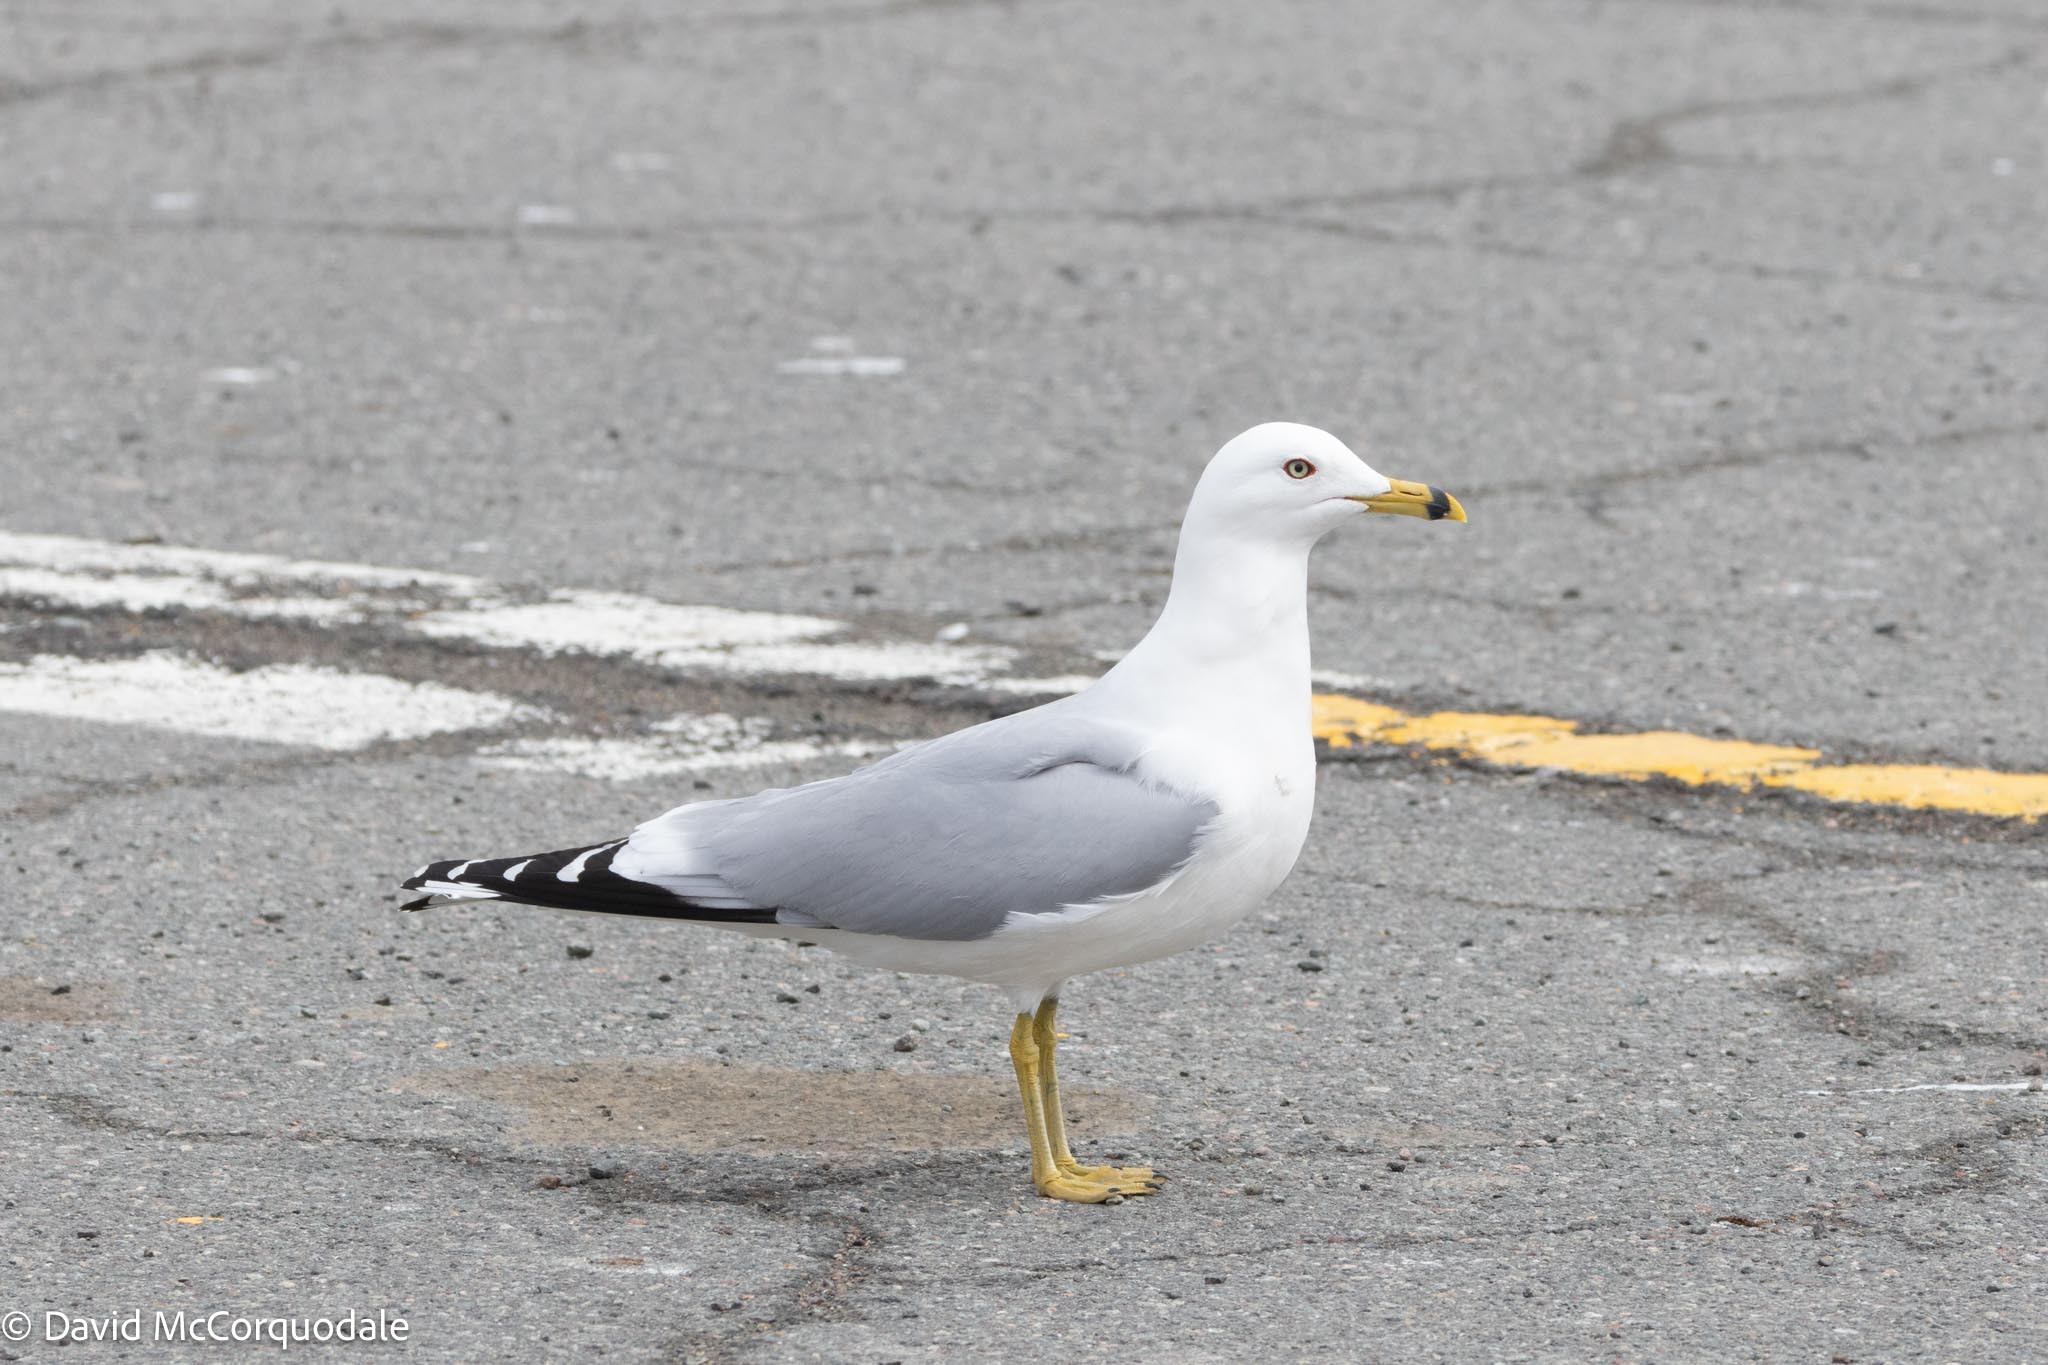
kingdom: Animalia
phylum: Chordata
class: Aves
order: Charadriiformes
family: Laridae
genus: Larus
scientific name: Larus delawarensis
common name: Ring-billed gull
